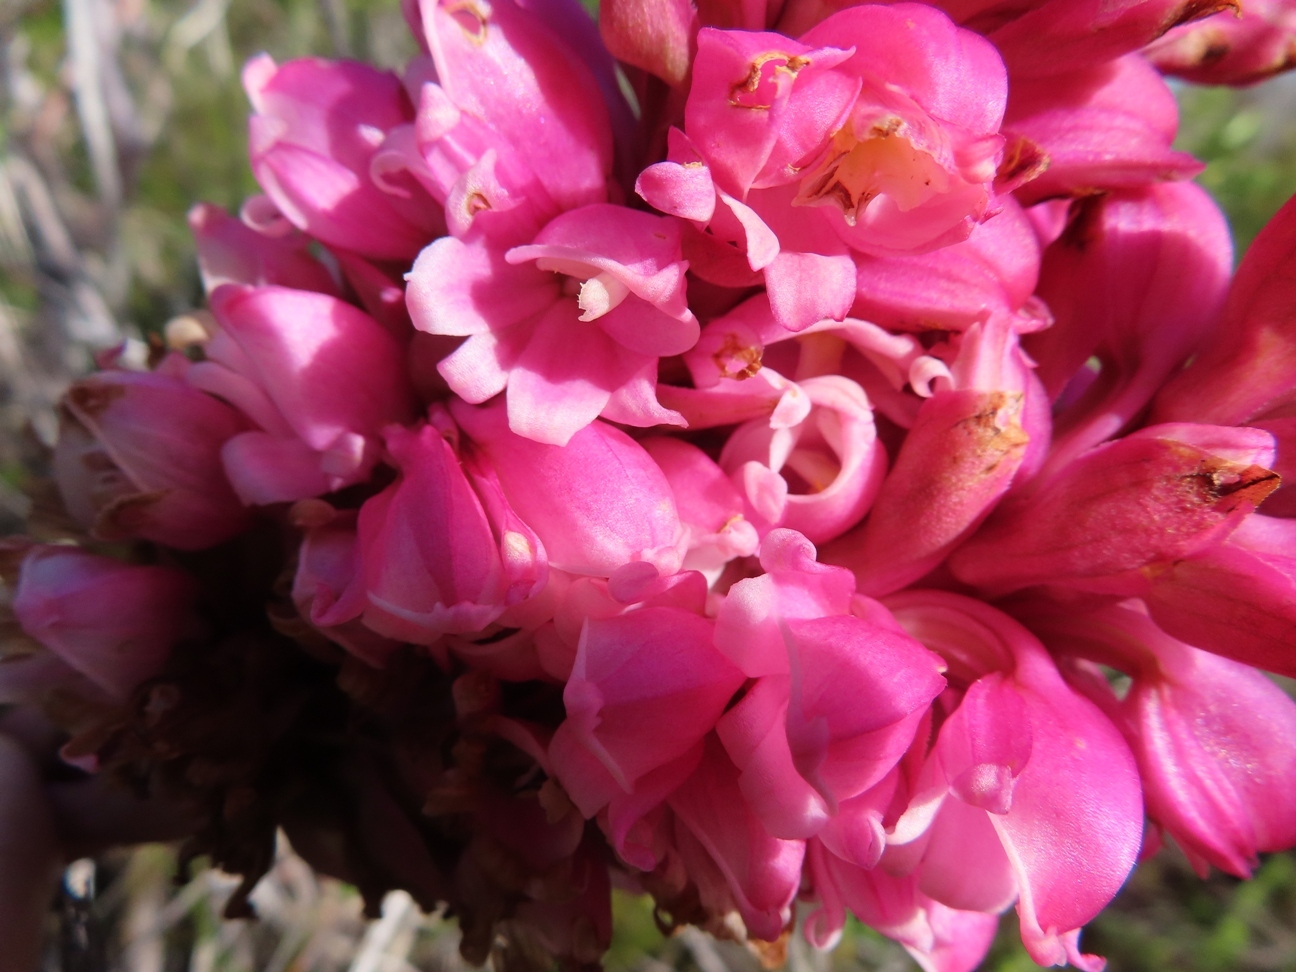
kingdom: Plantae
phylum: Tracheophyta
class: Liliopsida
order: Asparagales
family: Orchidaceae
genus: Satyrium
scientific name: Satyrium carneum
